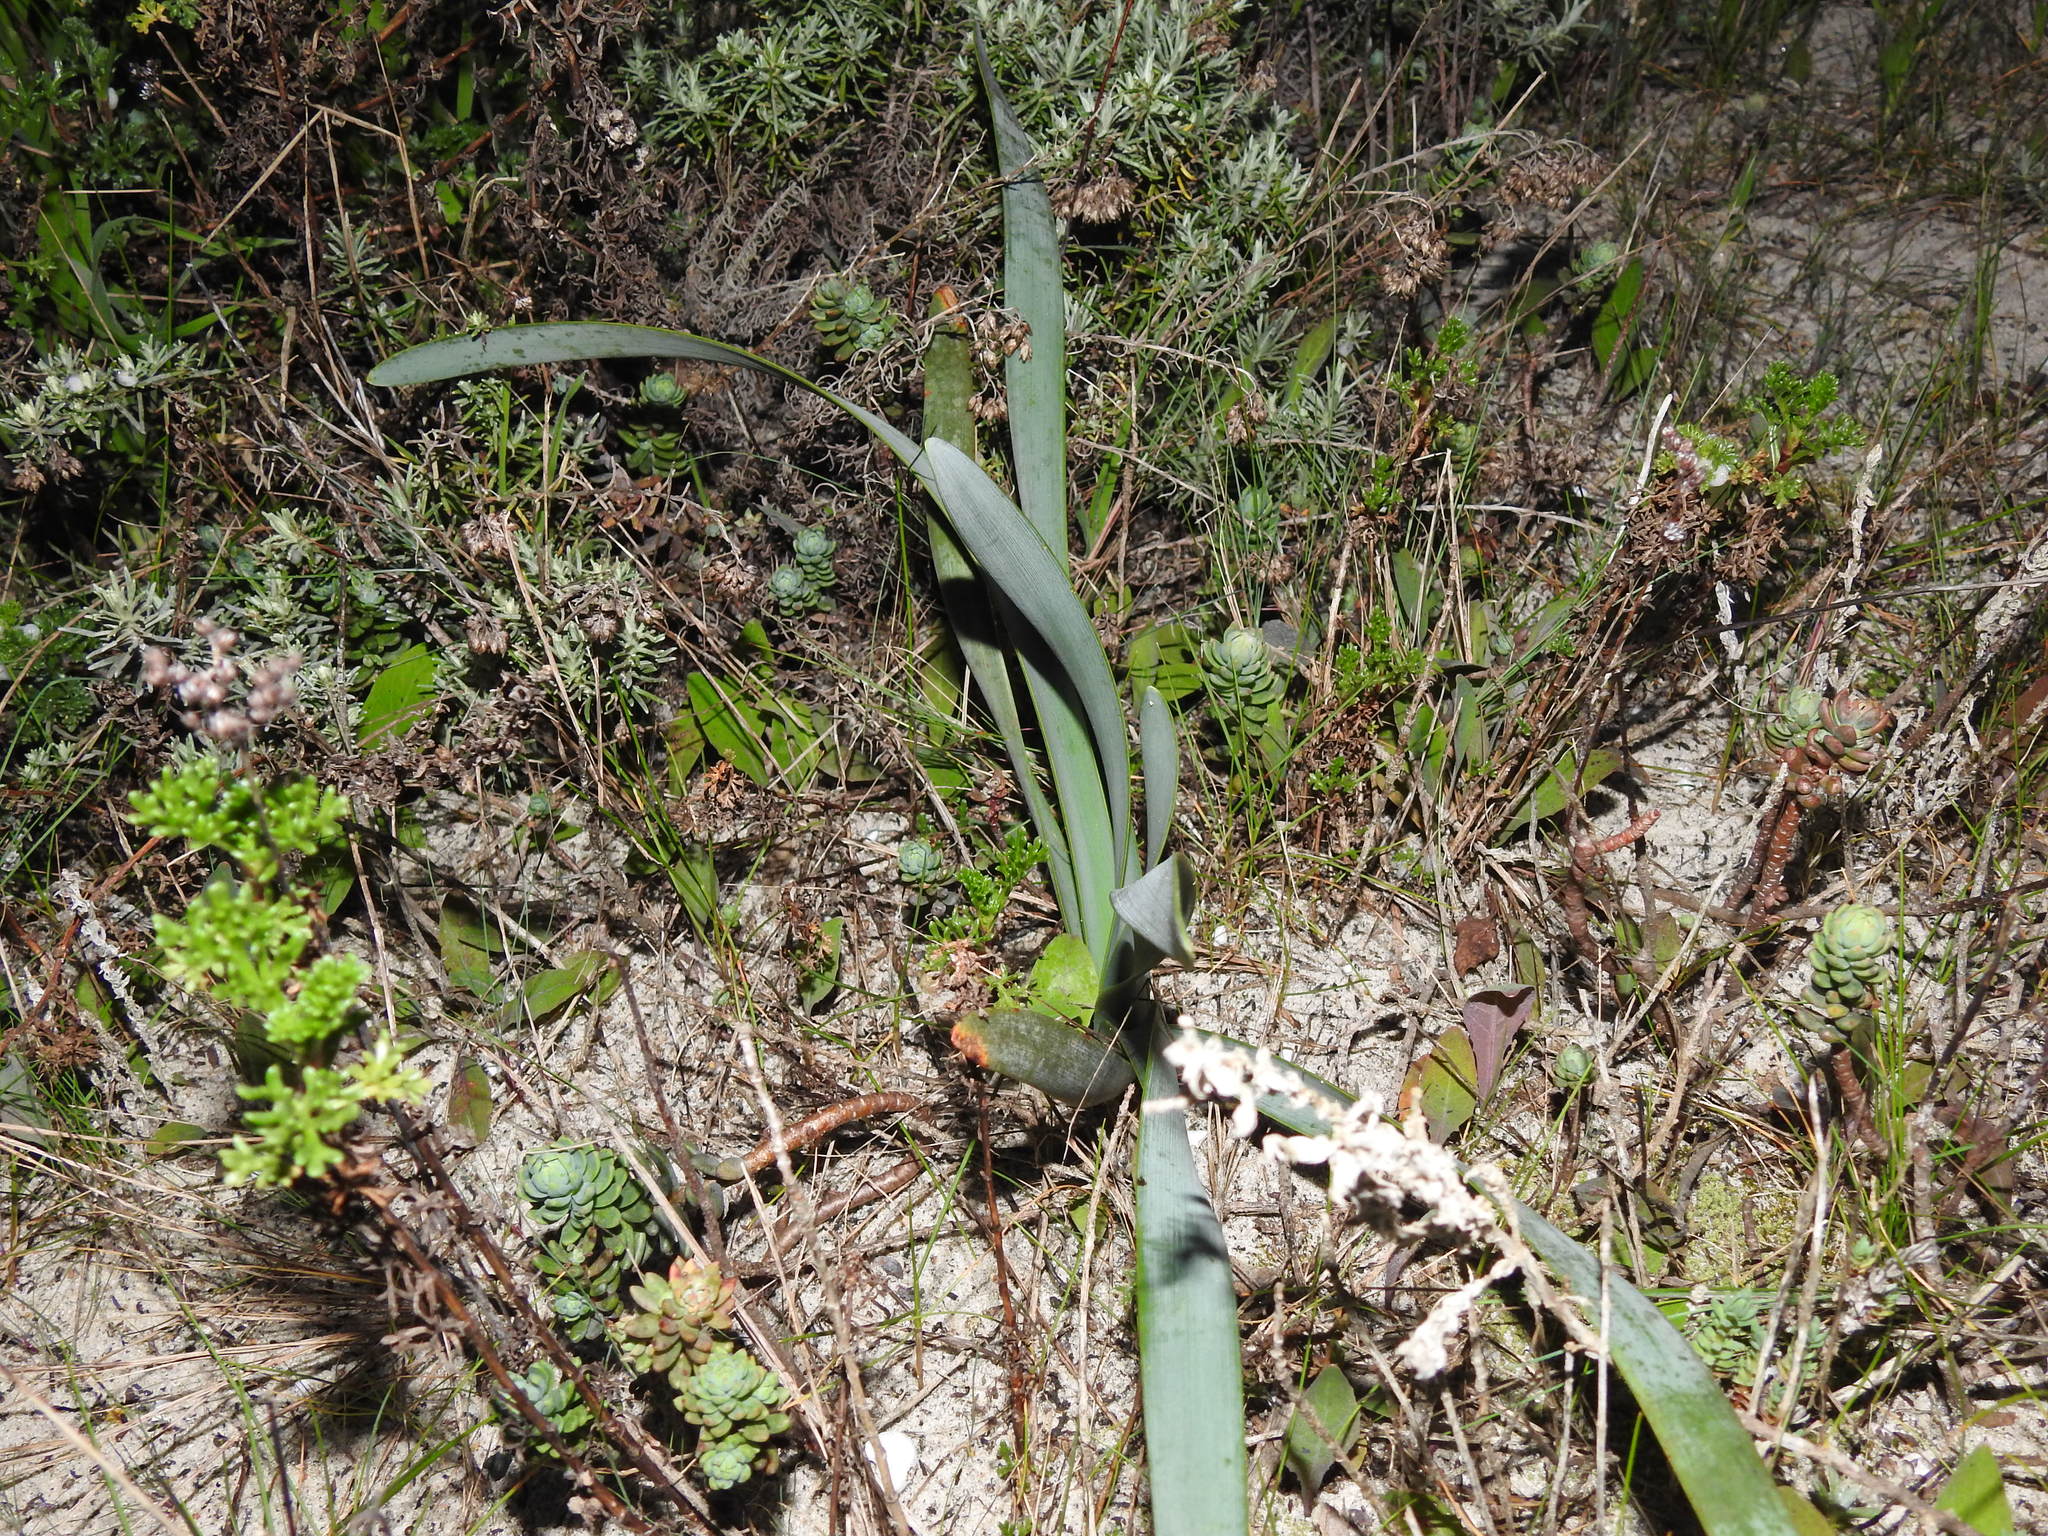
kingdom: Plantae
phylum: Tracheophyta
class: Liliopsida
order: Asparagales
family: Amaryllidaceae
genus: Pancratium
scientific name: Pancratium maritimum
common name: Sea-daffodil
